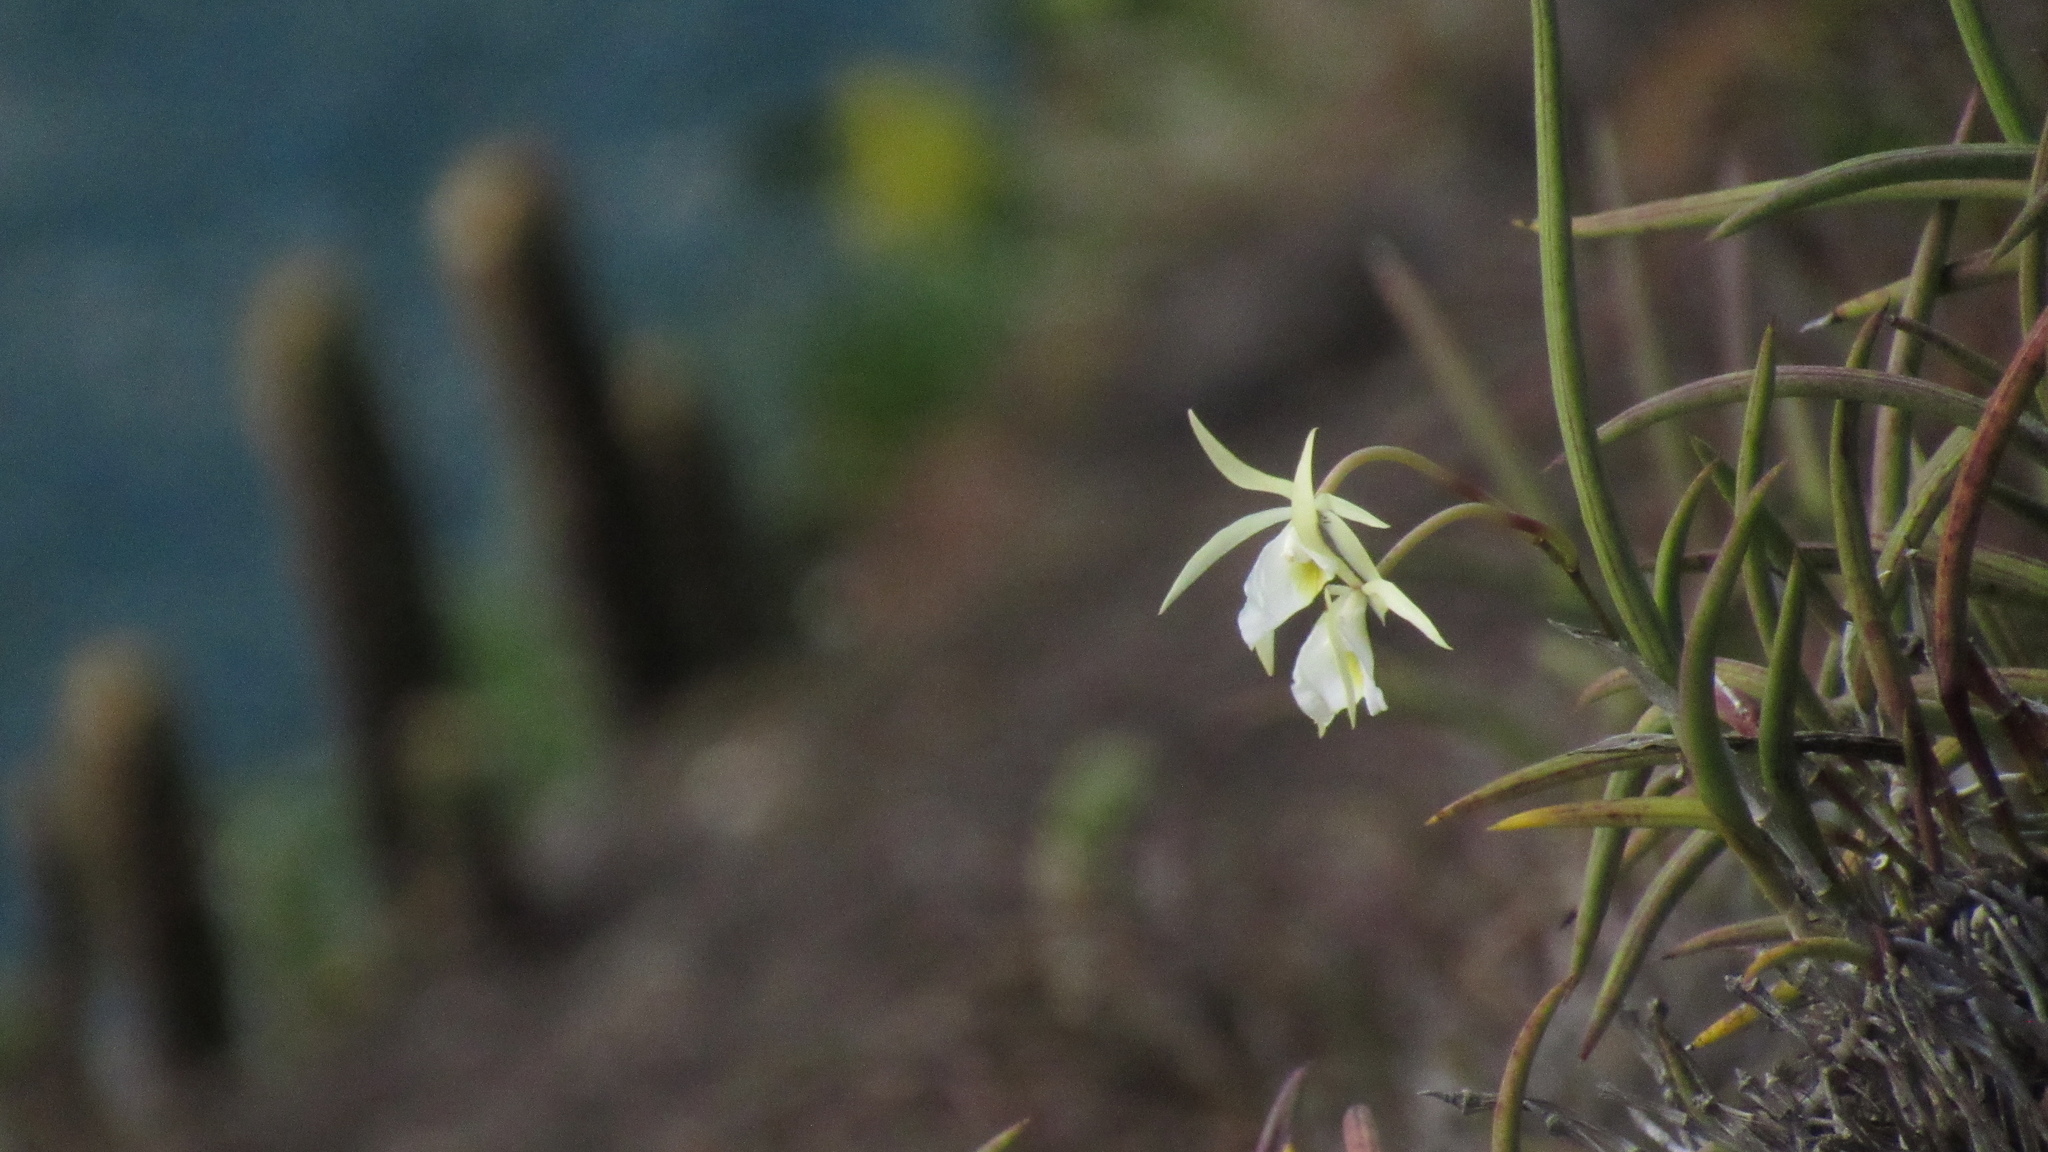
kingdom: Plantae
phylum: Tracheophyta
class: Liliopsida
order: Asparagales
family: Orchidaceae
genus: Brassavola
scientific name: Brassavola tuberculata
